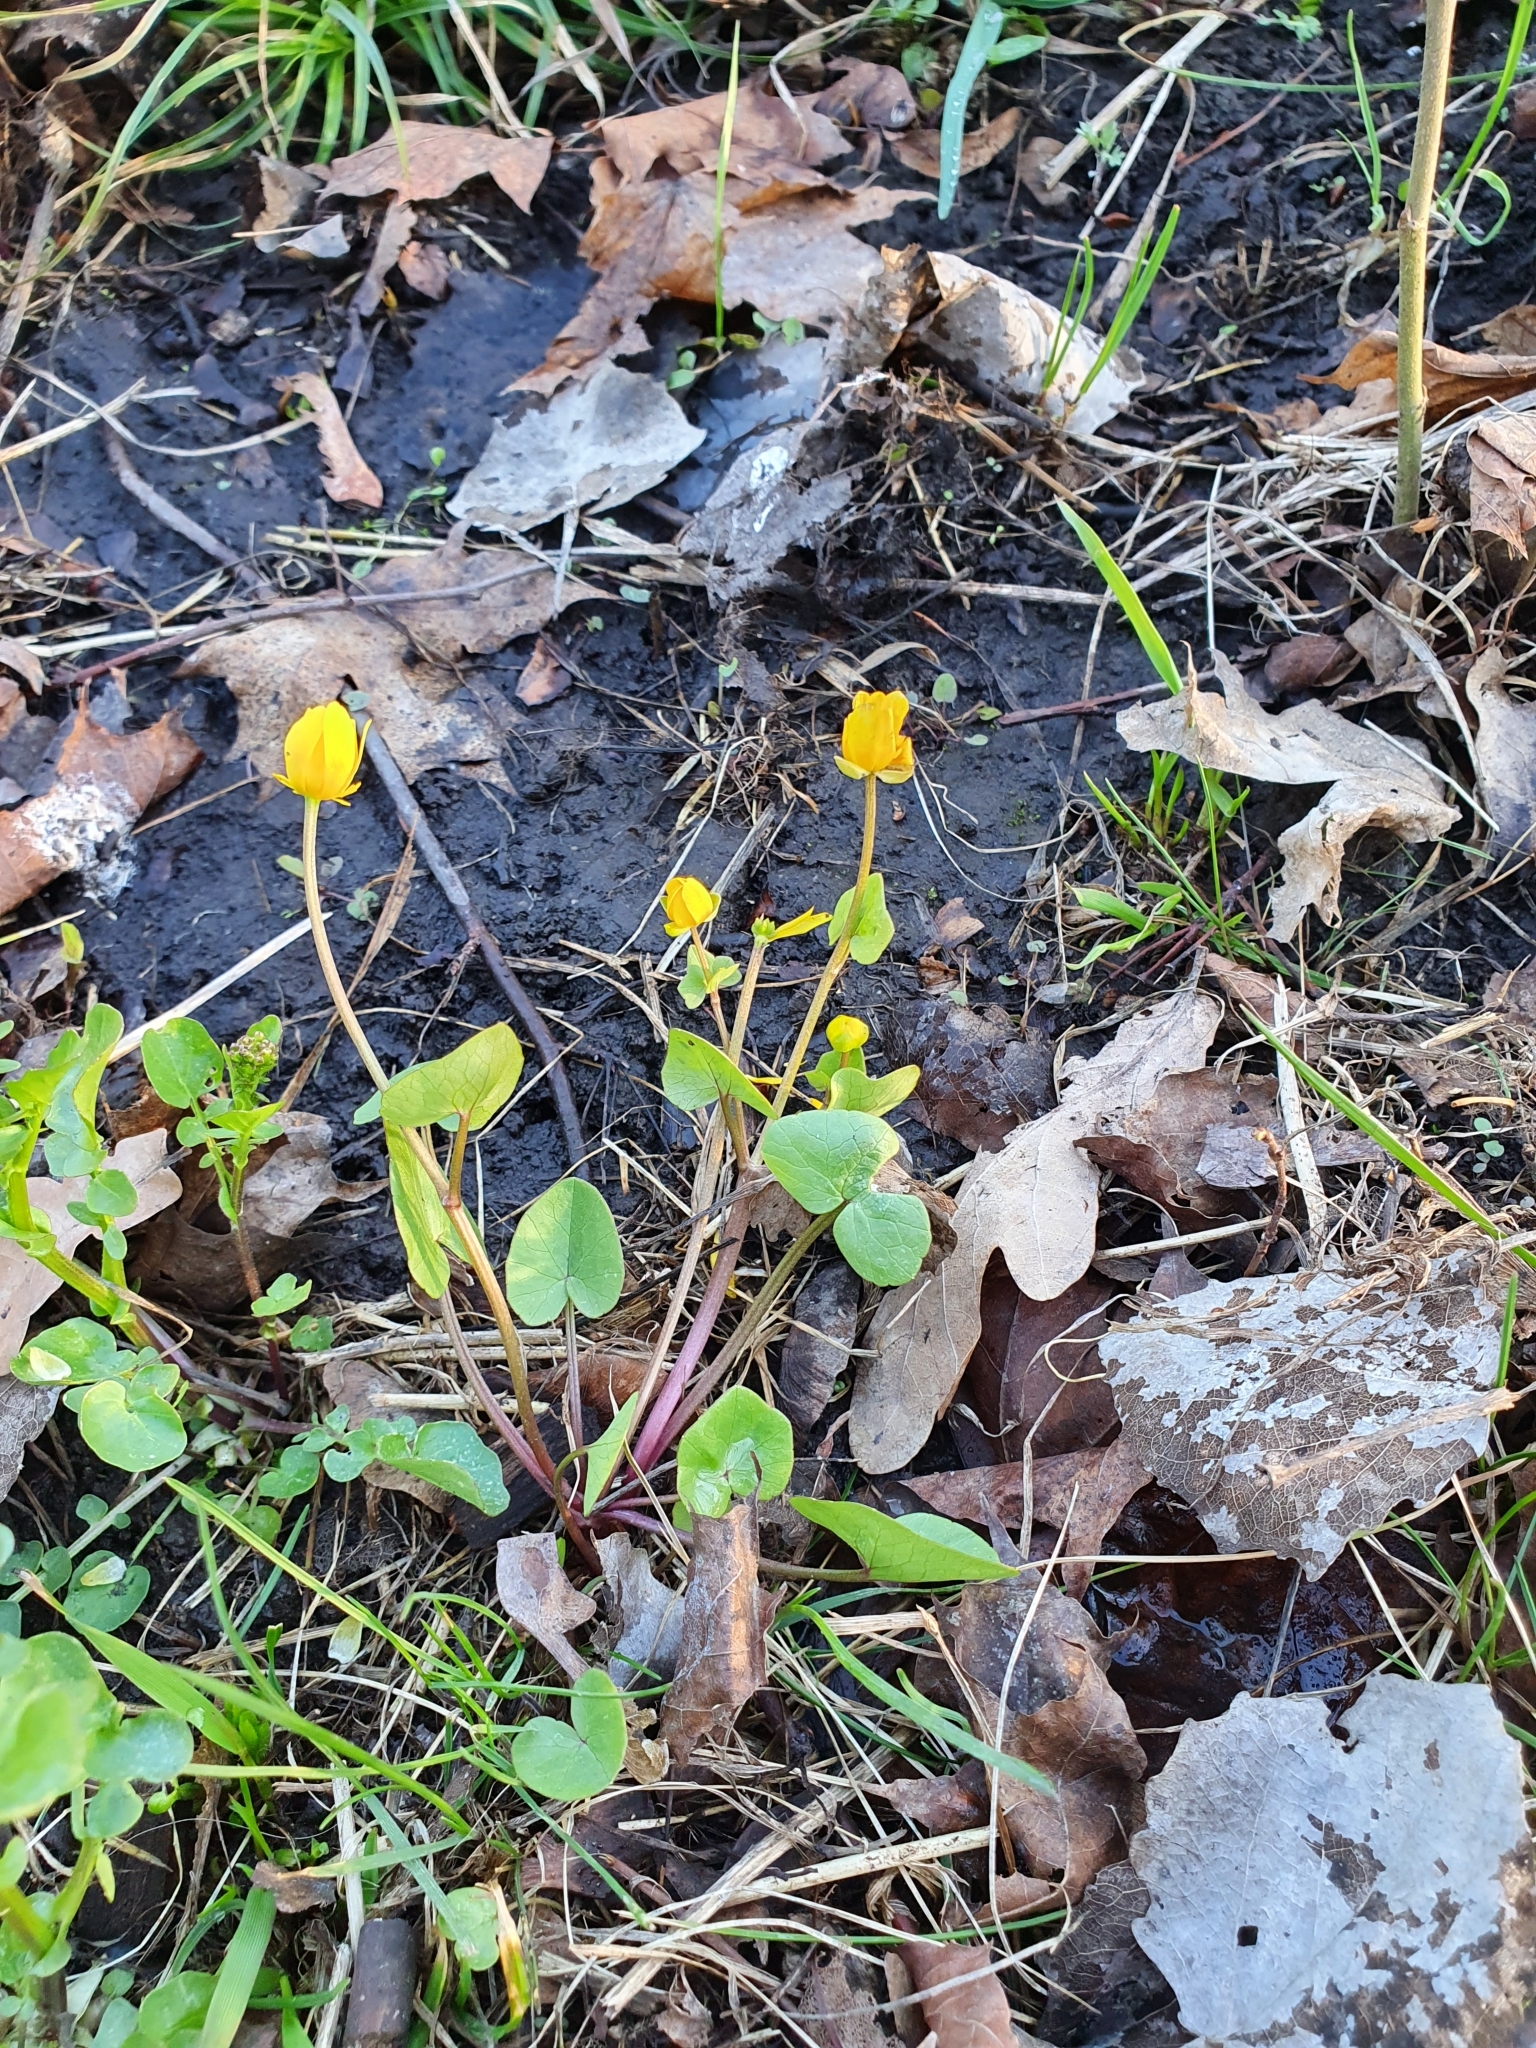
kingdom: Plantae
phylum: Tracheophyta
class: Magnoliopsida
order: Ranunculales
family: Ranunculaceae
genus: Ficaria
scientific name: Ficaria verna
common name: Lesser celandine
